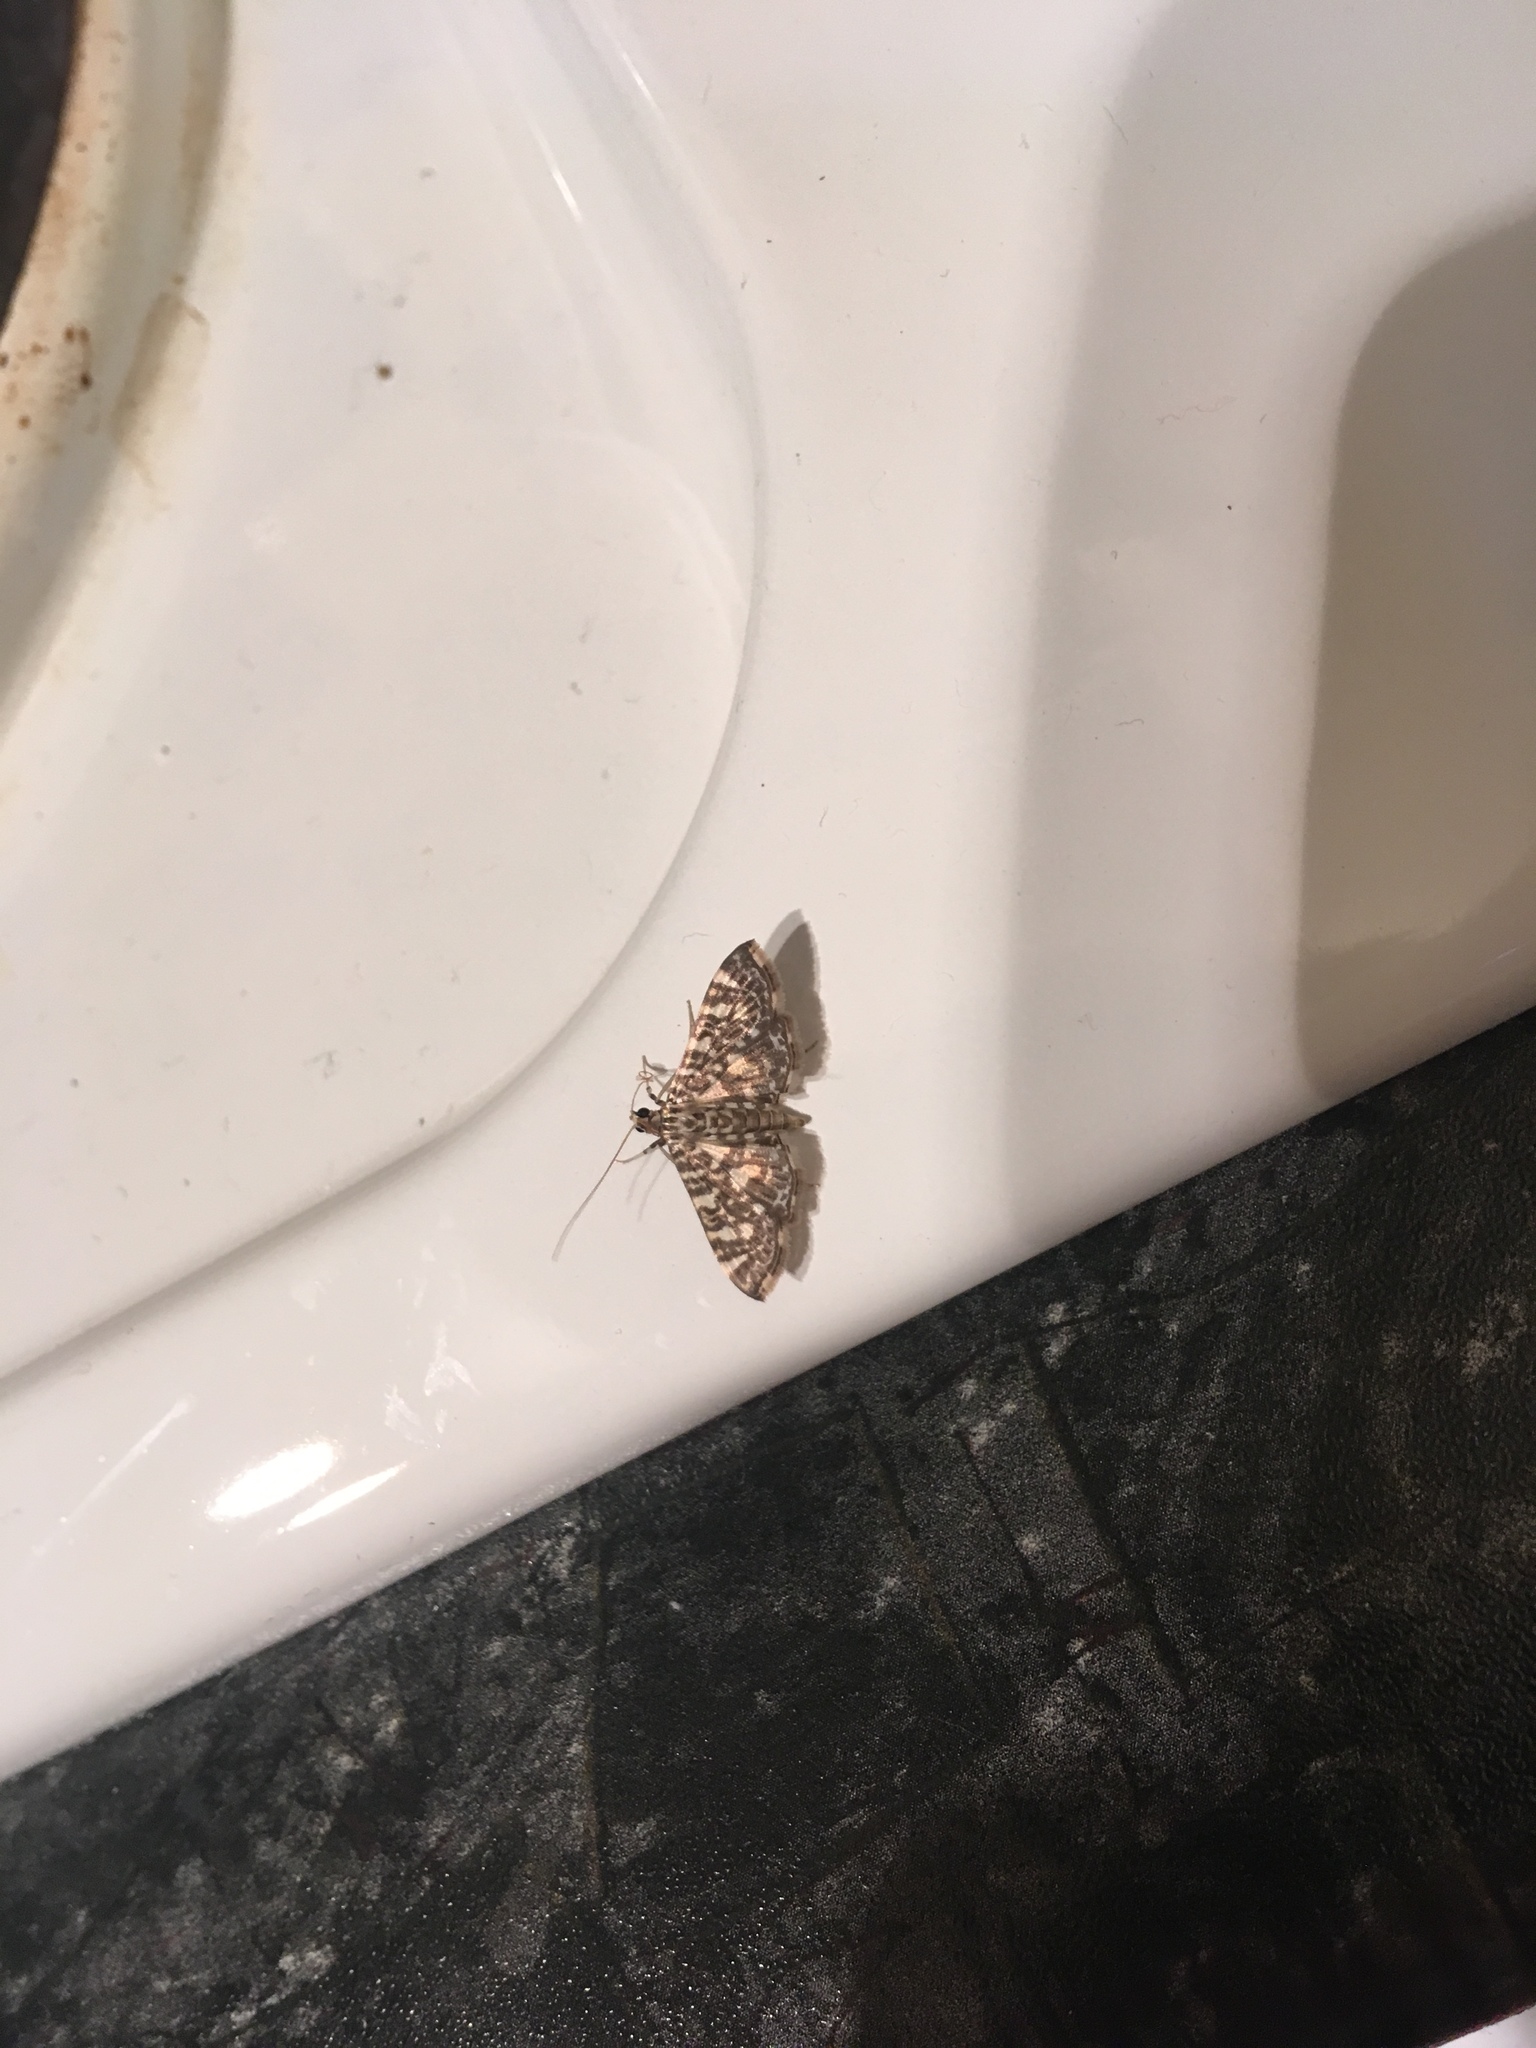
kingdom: Animalia
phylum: Arthropoda
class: Insecta
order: Lepidoptera
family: Crambidae
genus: Glyphodes
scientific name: Glyphodes onychinalis
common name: Swan plant moth
